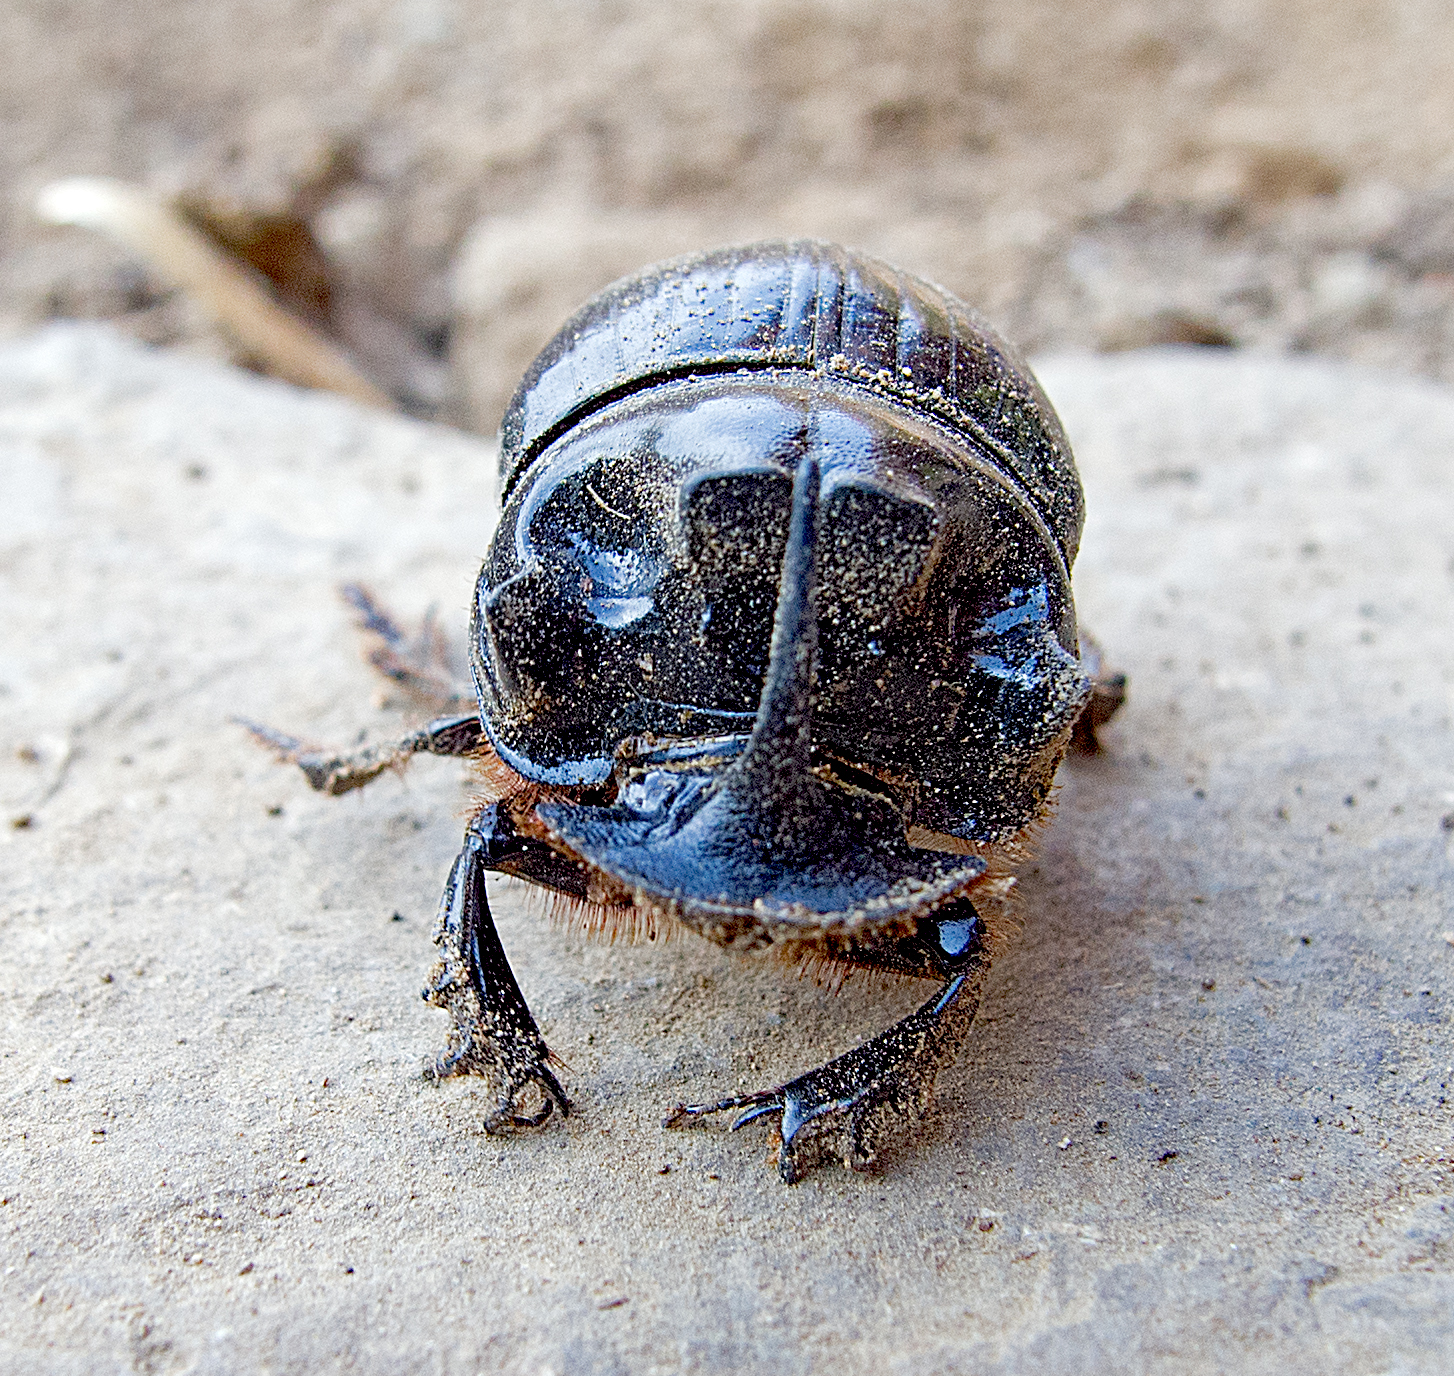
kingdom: Animalia
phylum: Arthropoda
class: Insecta
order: Coleoptera
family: Scarabaeidae
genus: Copris
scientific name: Copris lunaris
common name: Horned dung beetle
